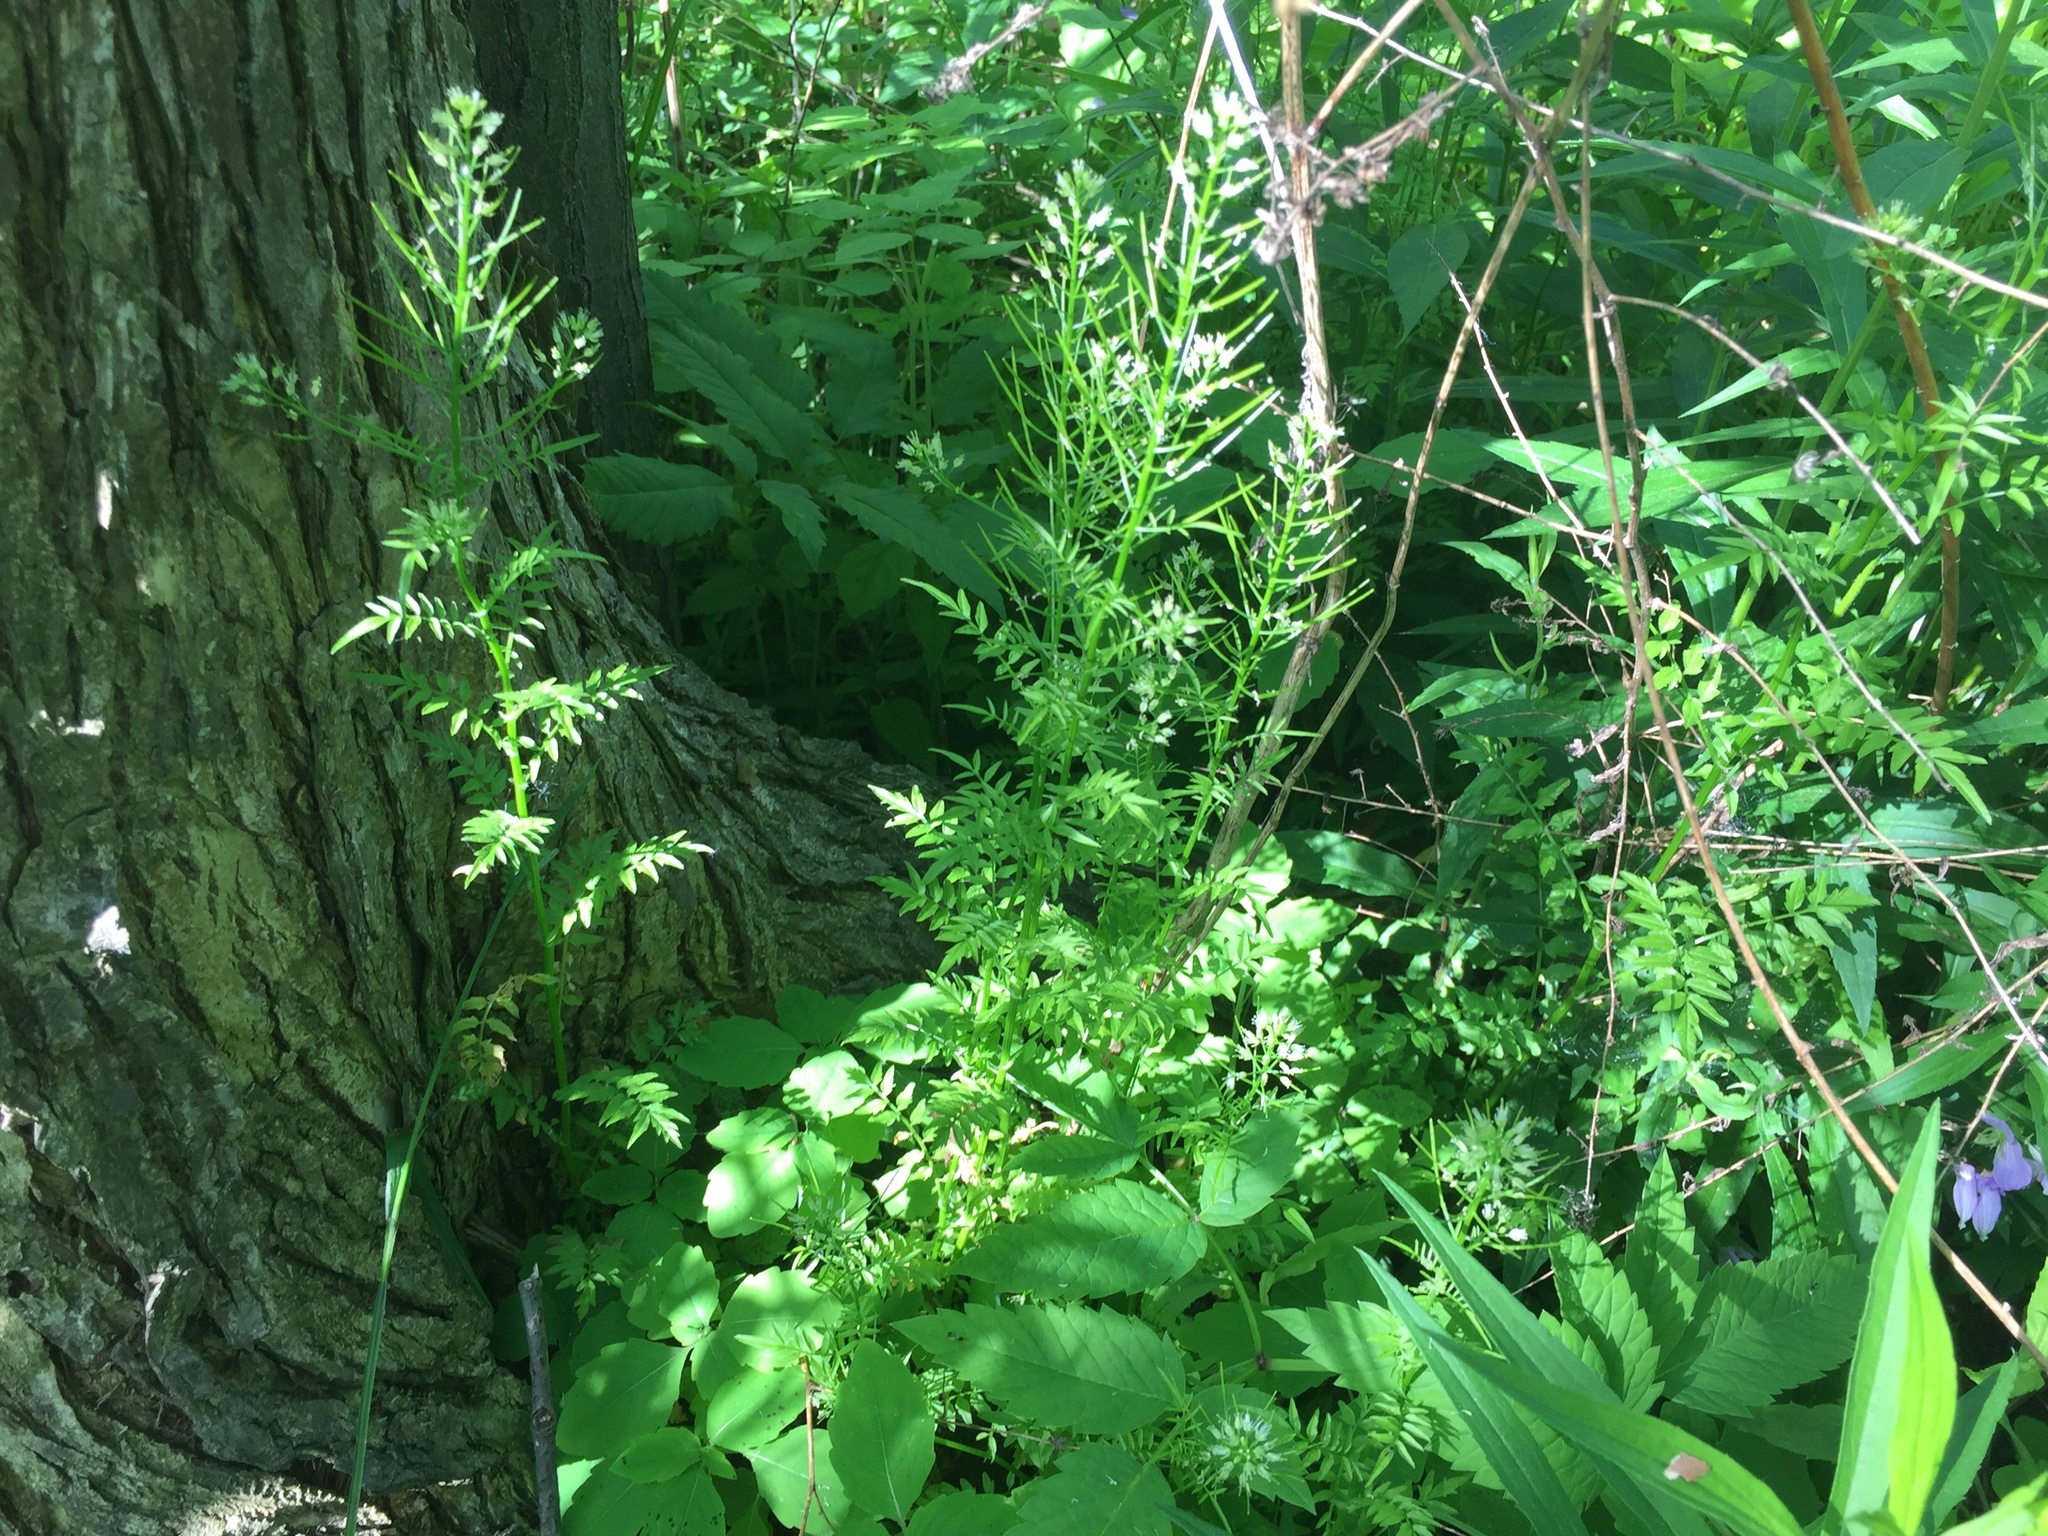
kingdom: Plantae
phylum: Tracheophyta
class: Magnoliopsida
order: Brassicales
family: Brassicaceae
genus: Cardamine
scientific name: Cardamine impatiens
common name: Narrow-leaved bitter-cress
